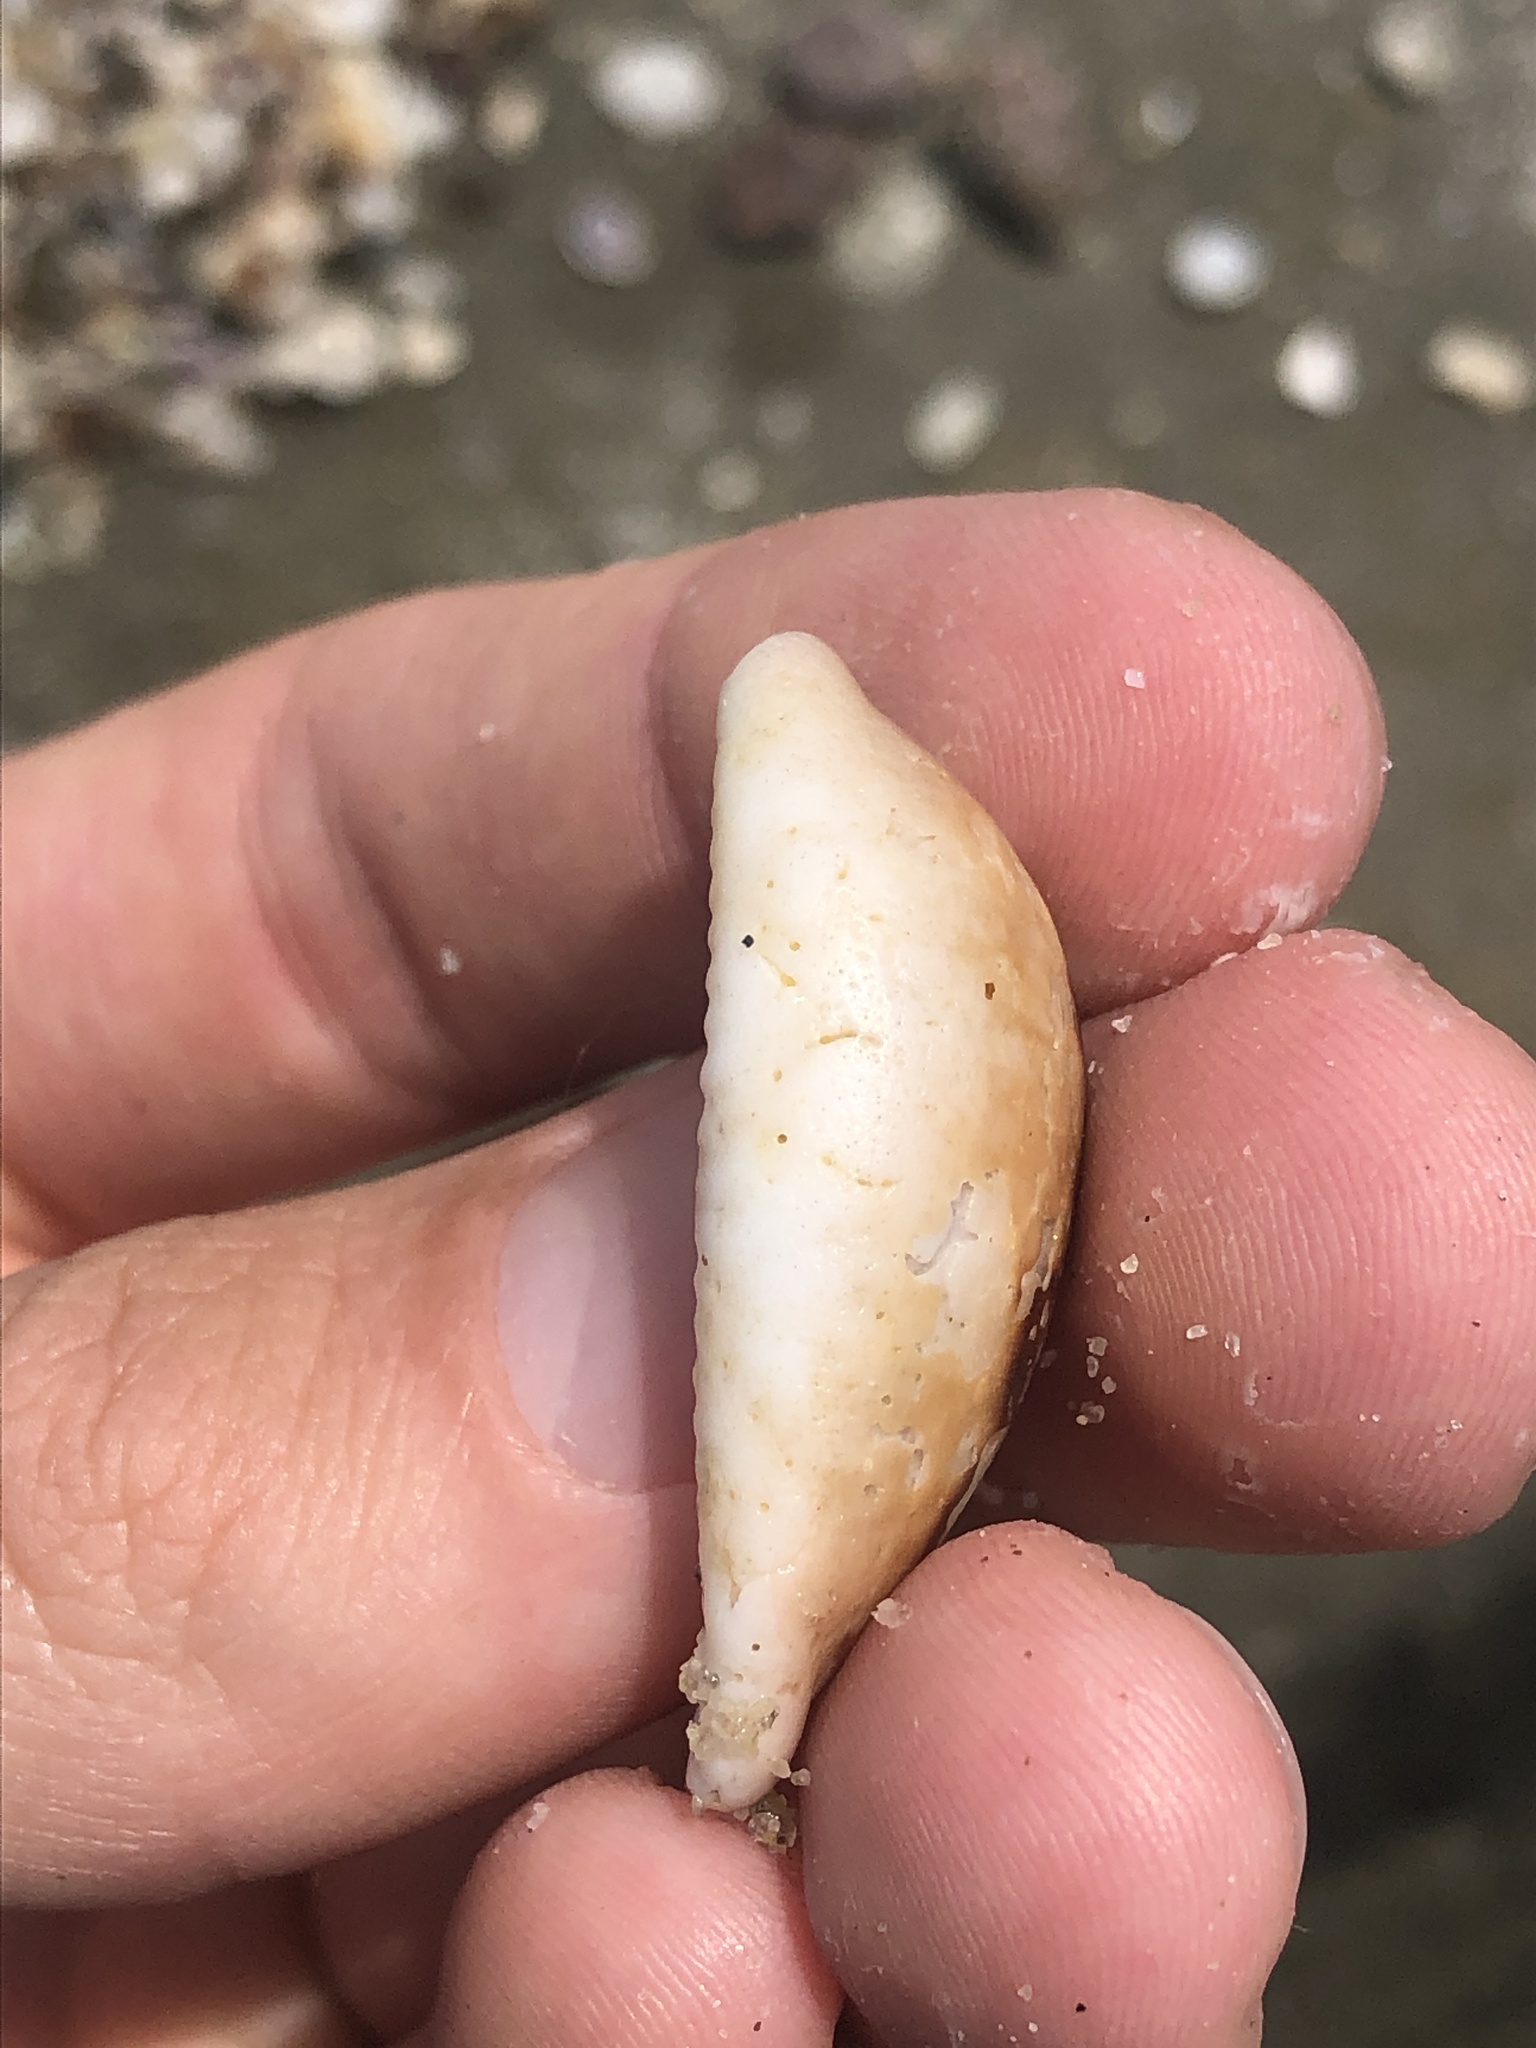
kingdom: Animalia
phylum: Mollusca
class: Gastropoda
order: Littorinimorpha
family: Cypraeidae
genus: Neobernaya
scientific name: Neobernaya spadicea
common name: Chestnut cowrie
